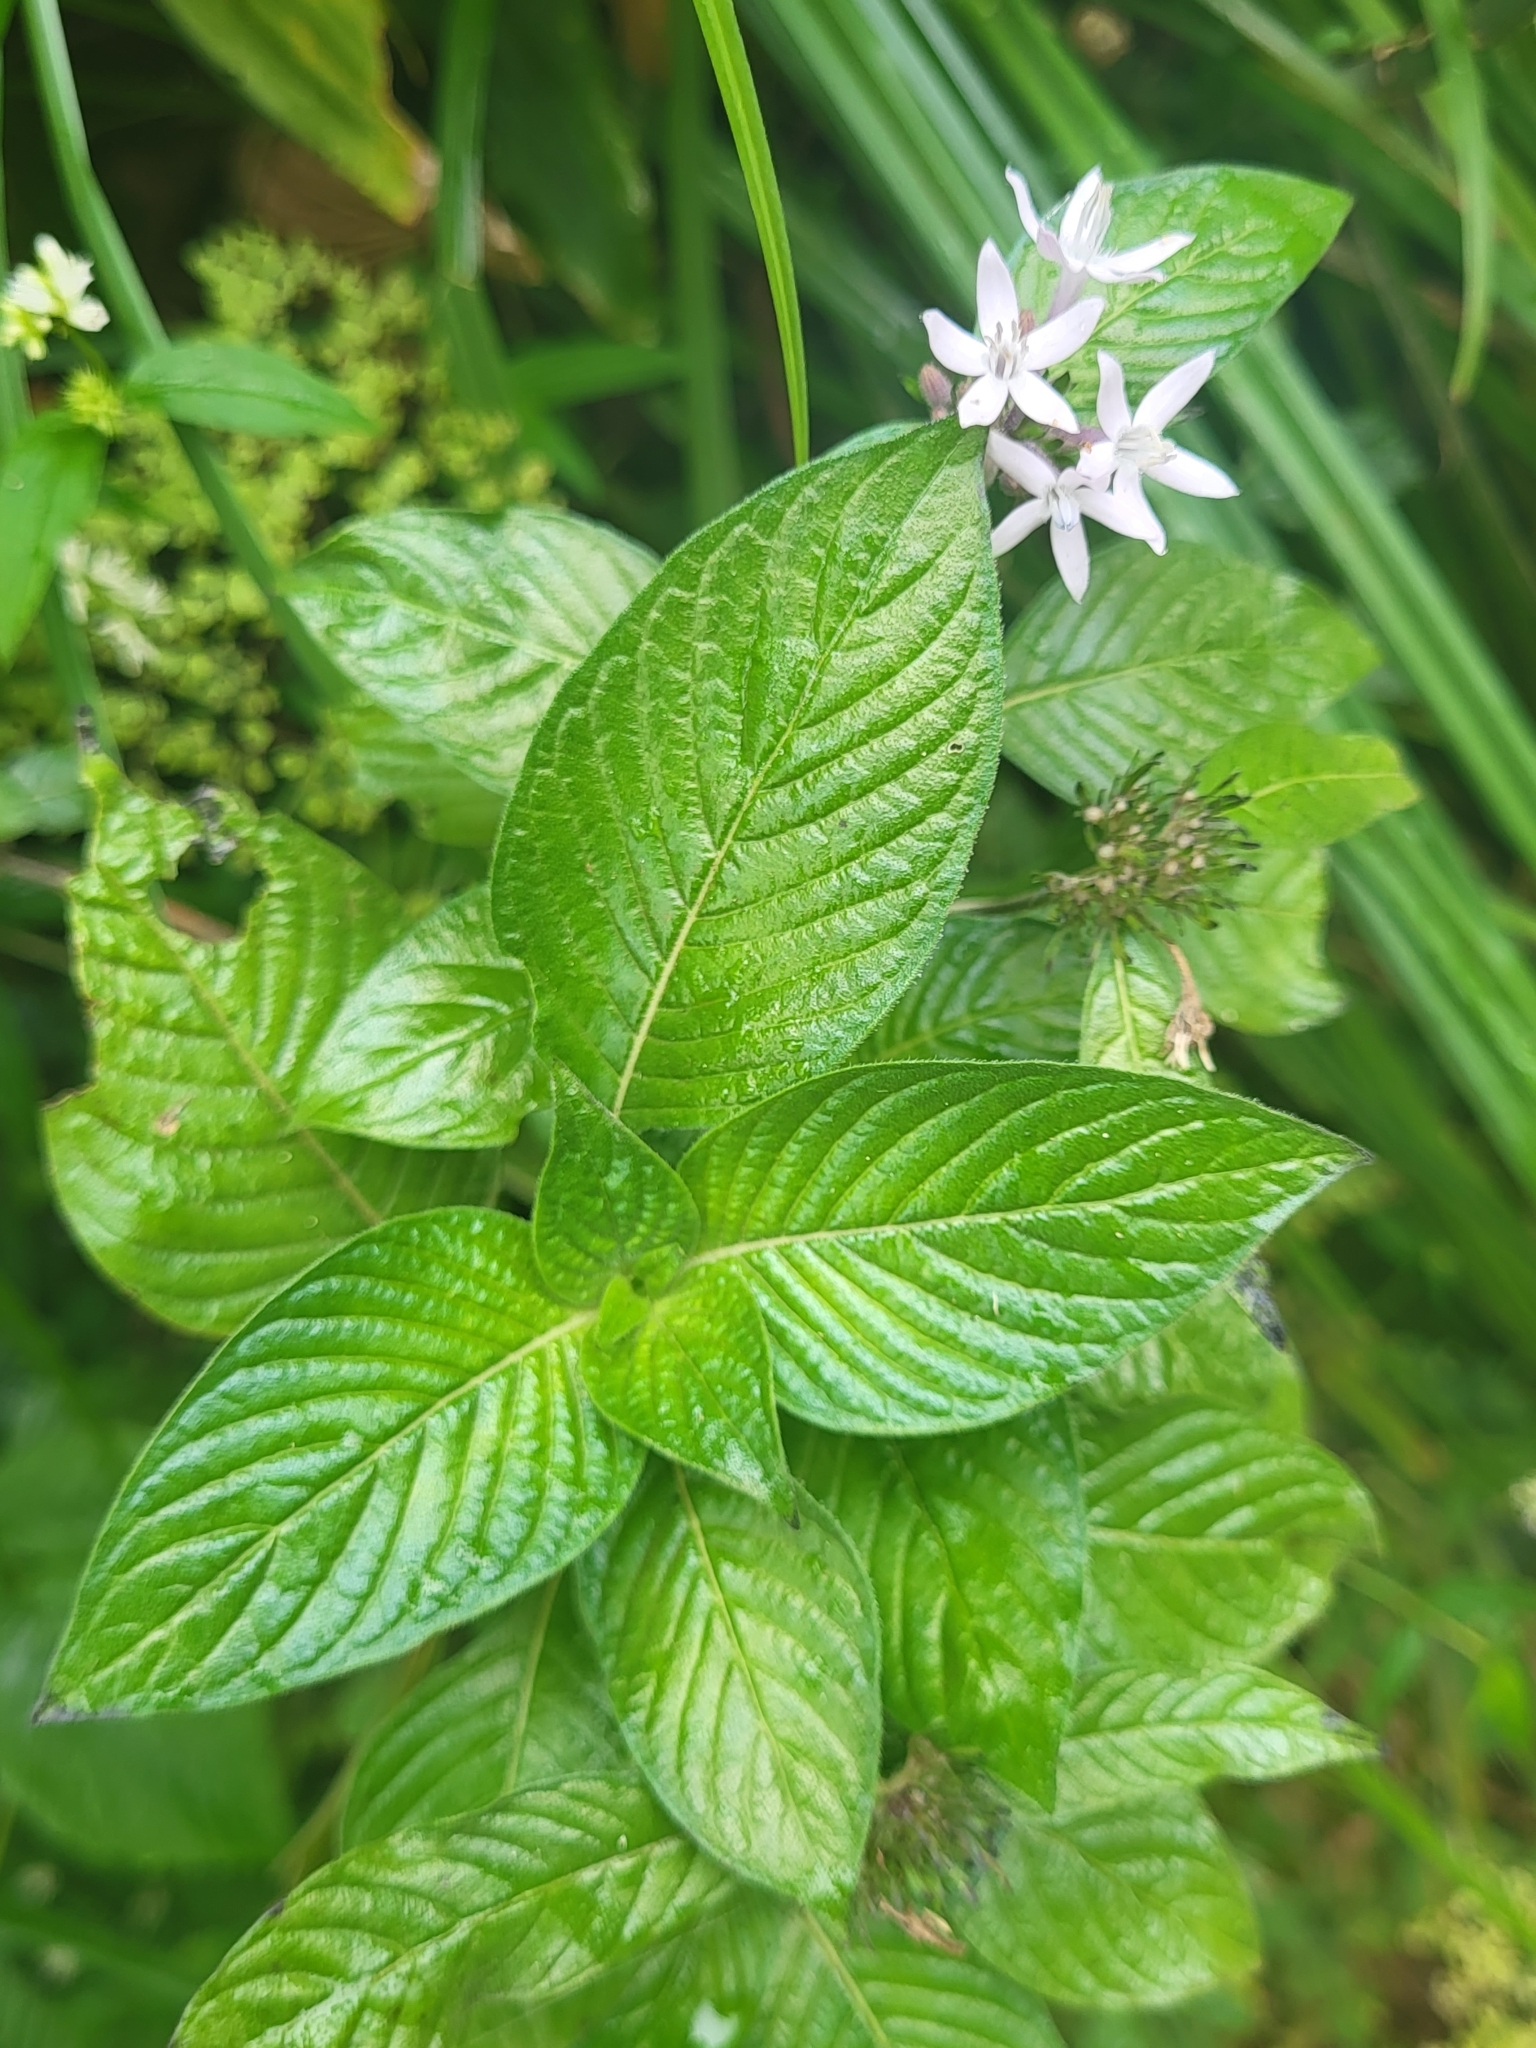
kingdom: Plantae
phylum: Tracheophyta
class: Magnoliopsida
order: Gentianales
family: Rubiaceae
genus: Pentas
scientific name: Pentas lanceolata
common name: Egyptian starcluster
